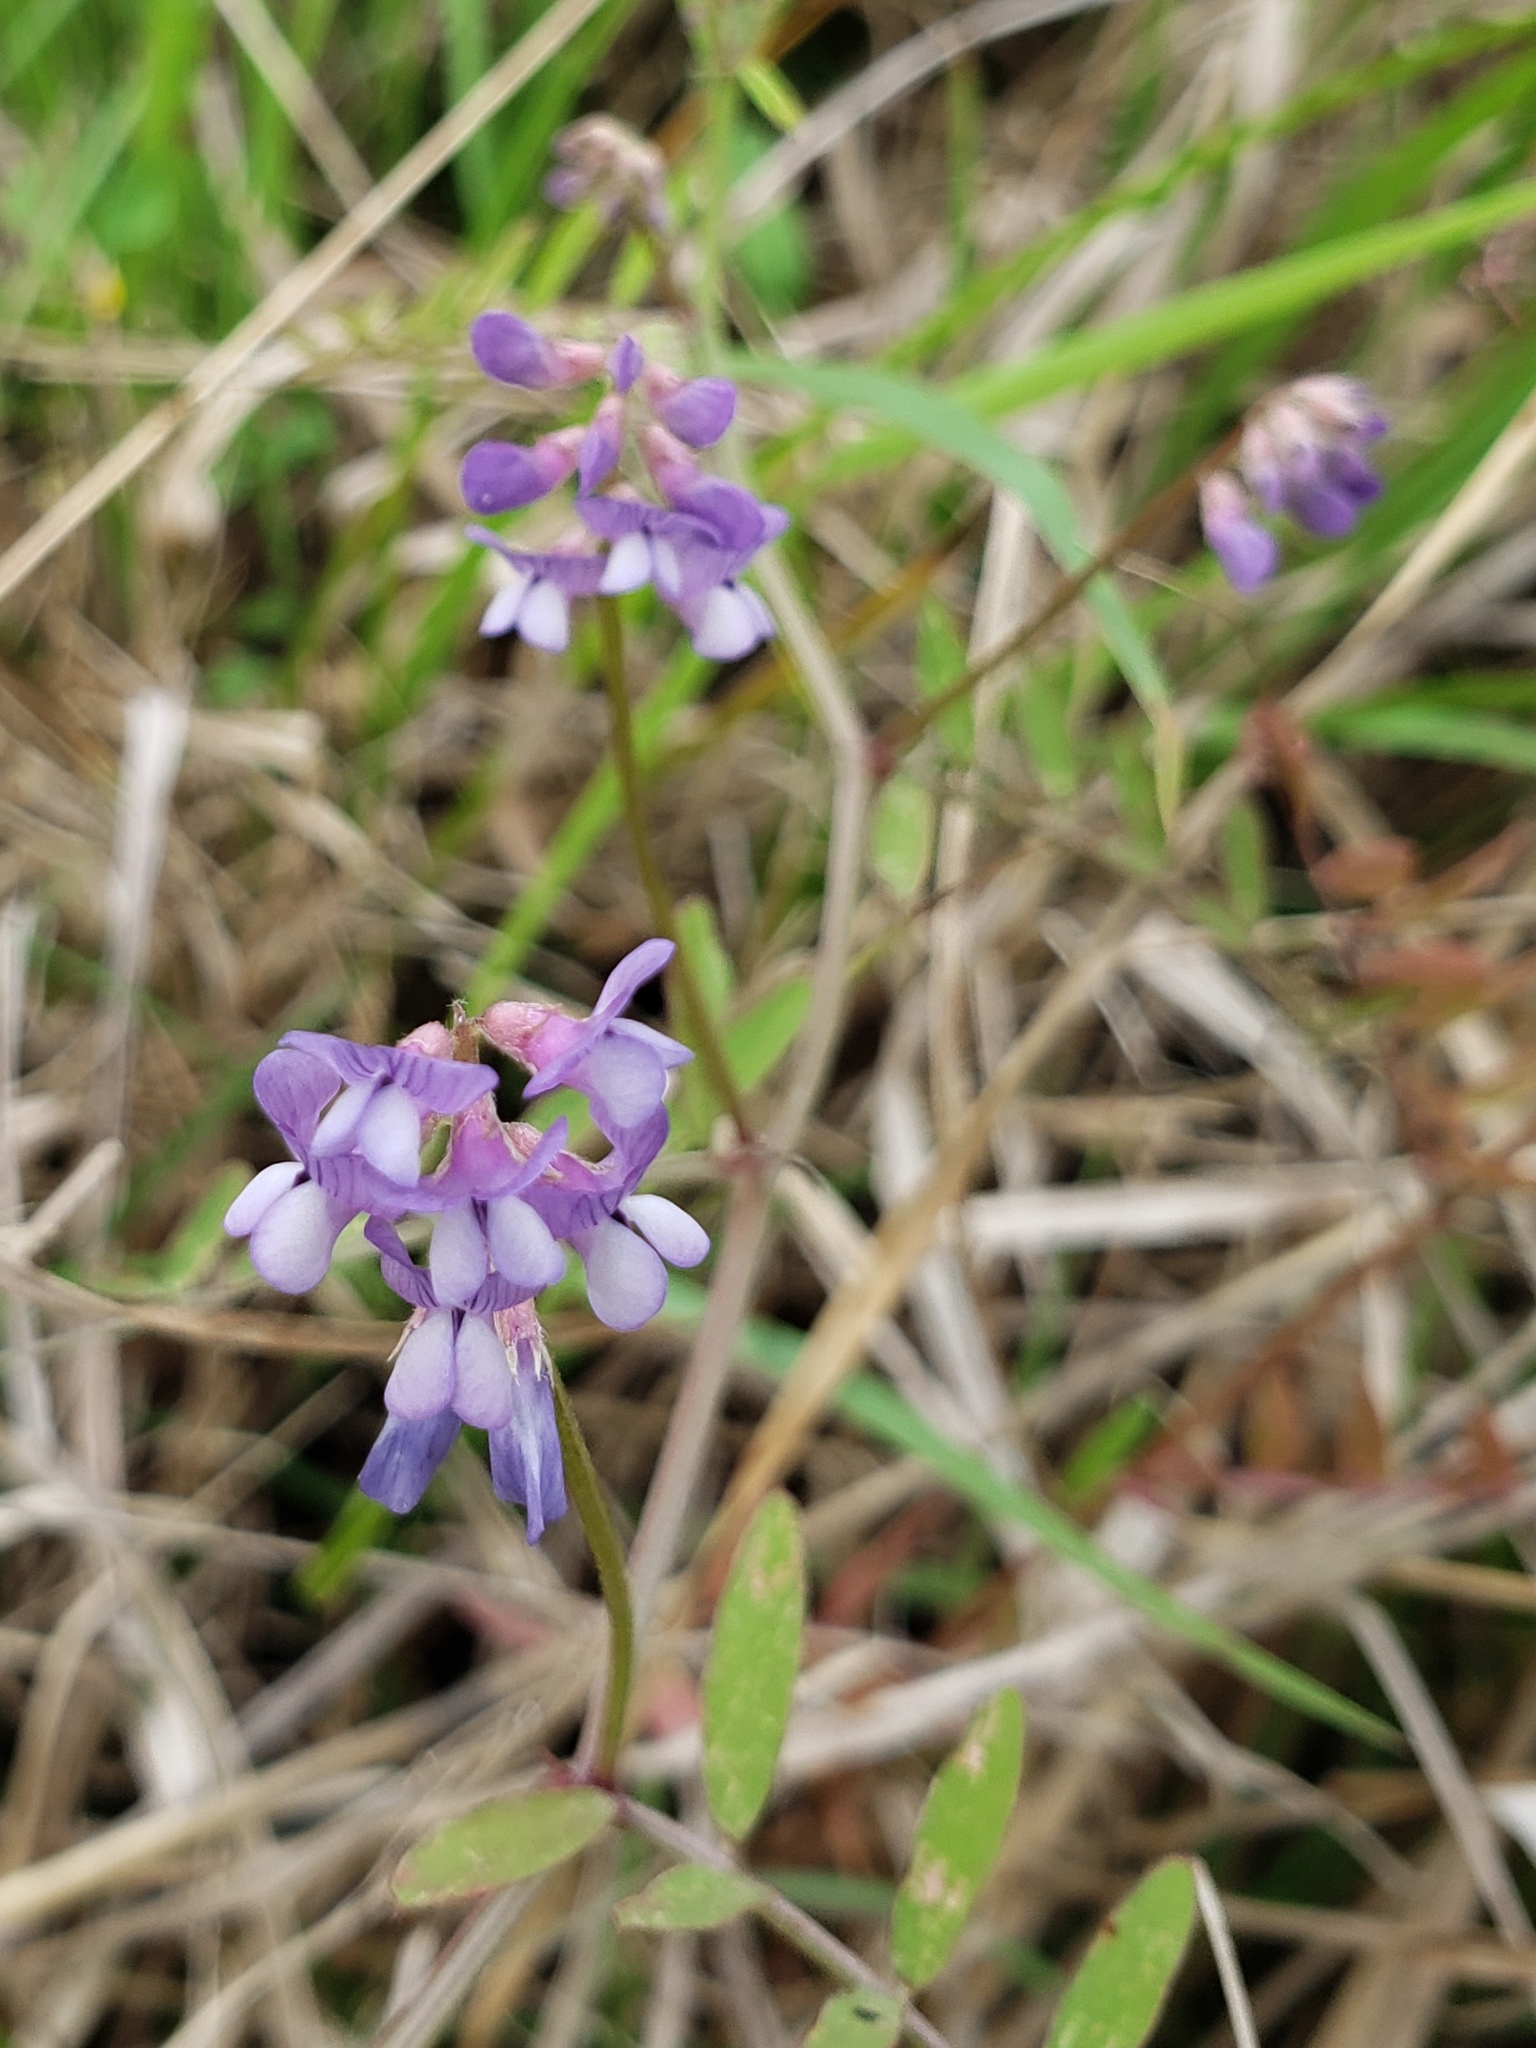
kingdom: Plantae
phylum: Tracheophyta
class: Magnoliopsida
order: Fabales
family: Fabaceae
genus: Vicia
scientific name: Vicia ludoviciana
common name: Louisiana vetch
